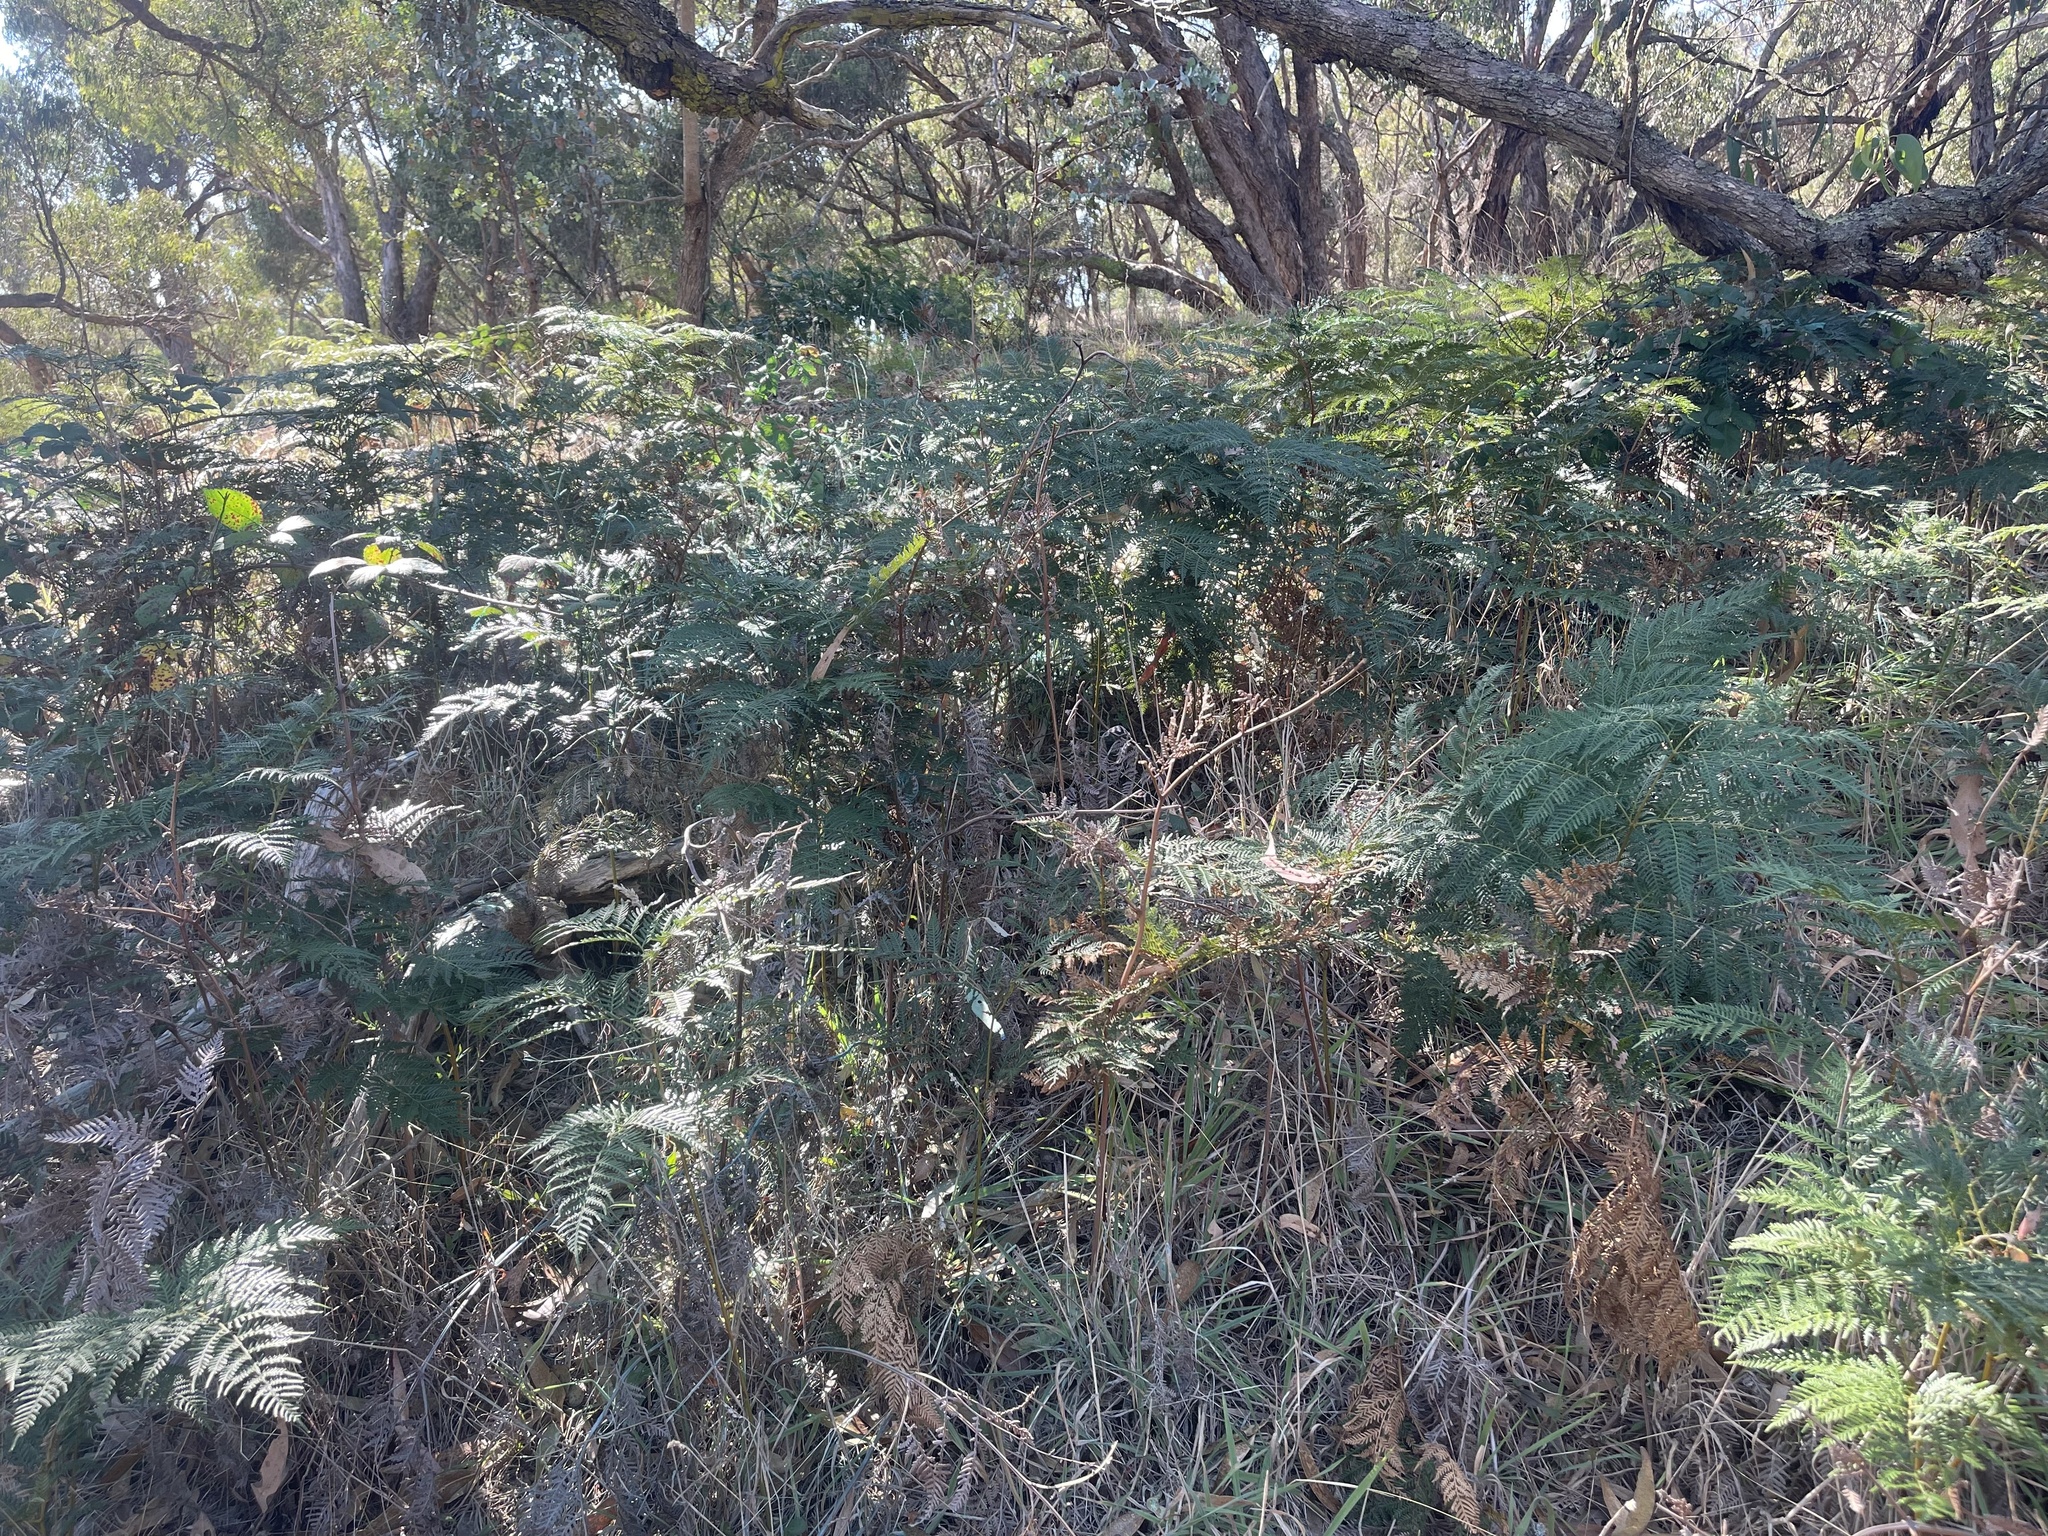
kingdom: Plantae
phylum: Tracheophyta
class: Polypodiopsida
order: Polypodiales
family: Dennstaedtiaceae
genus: Pteridium
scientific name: Pteridium esculentum
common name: Bracken fern
